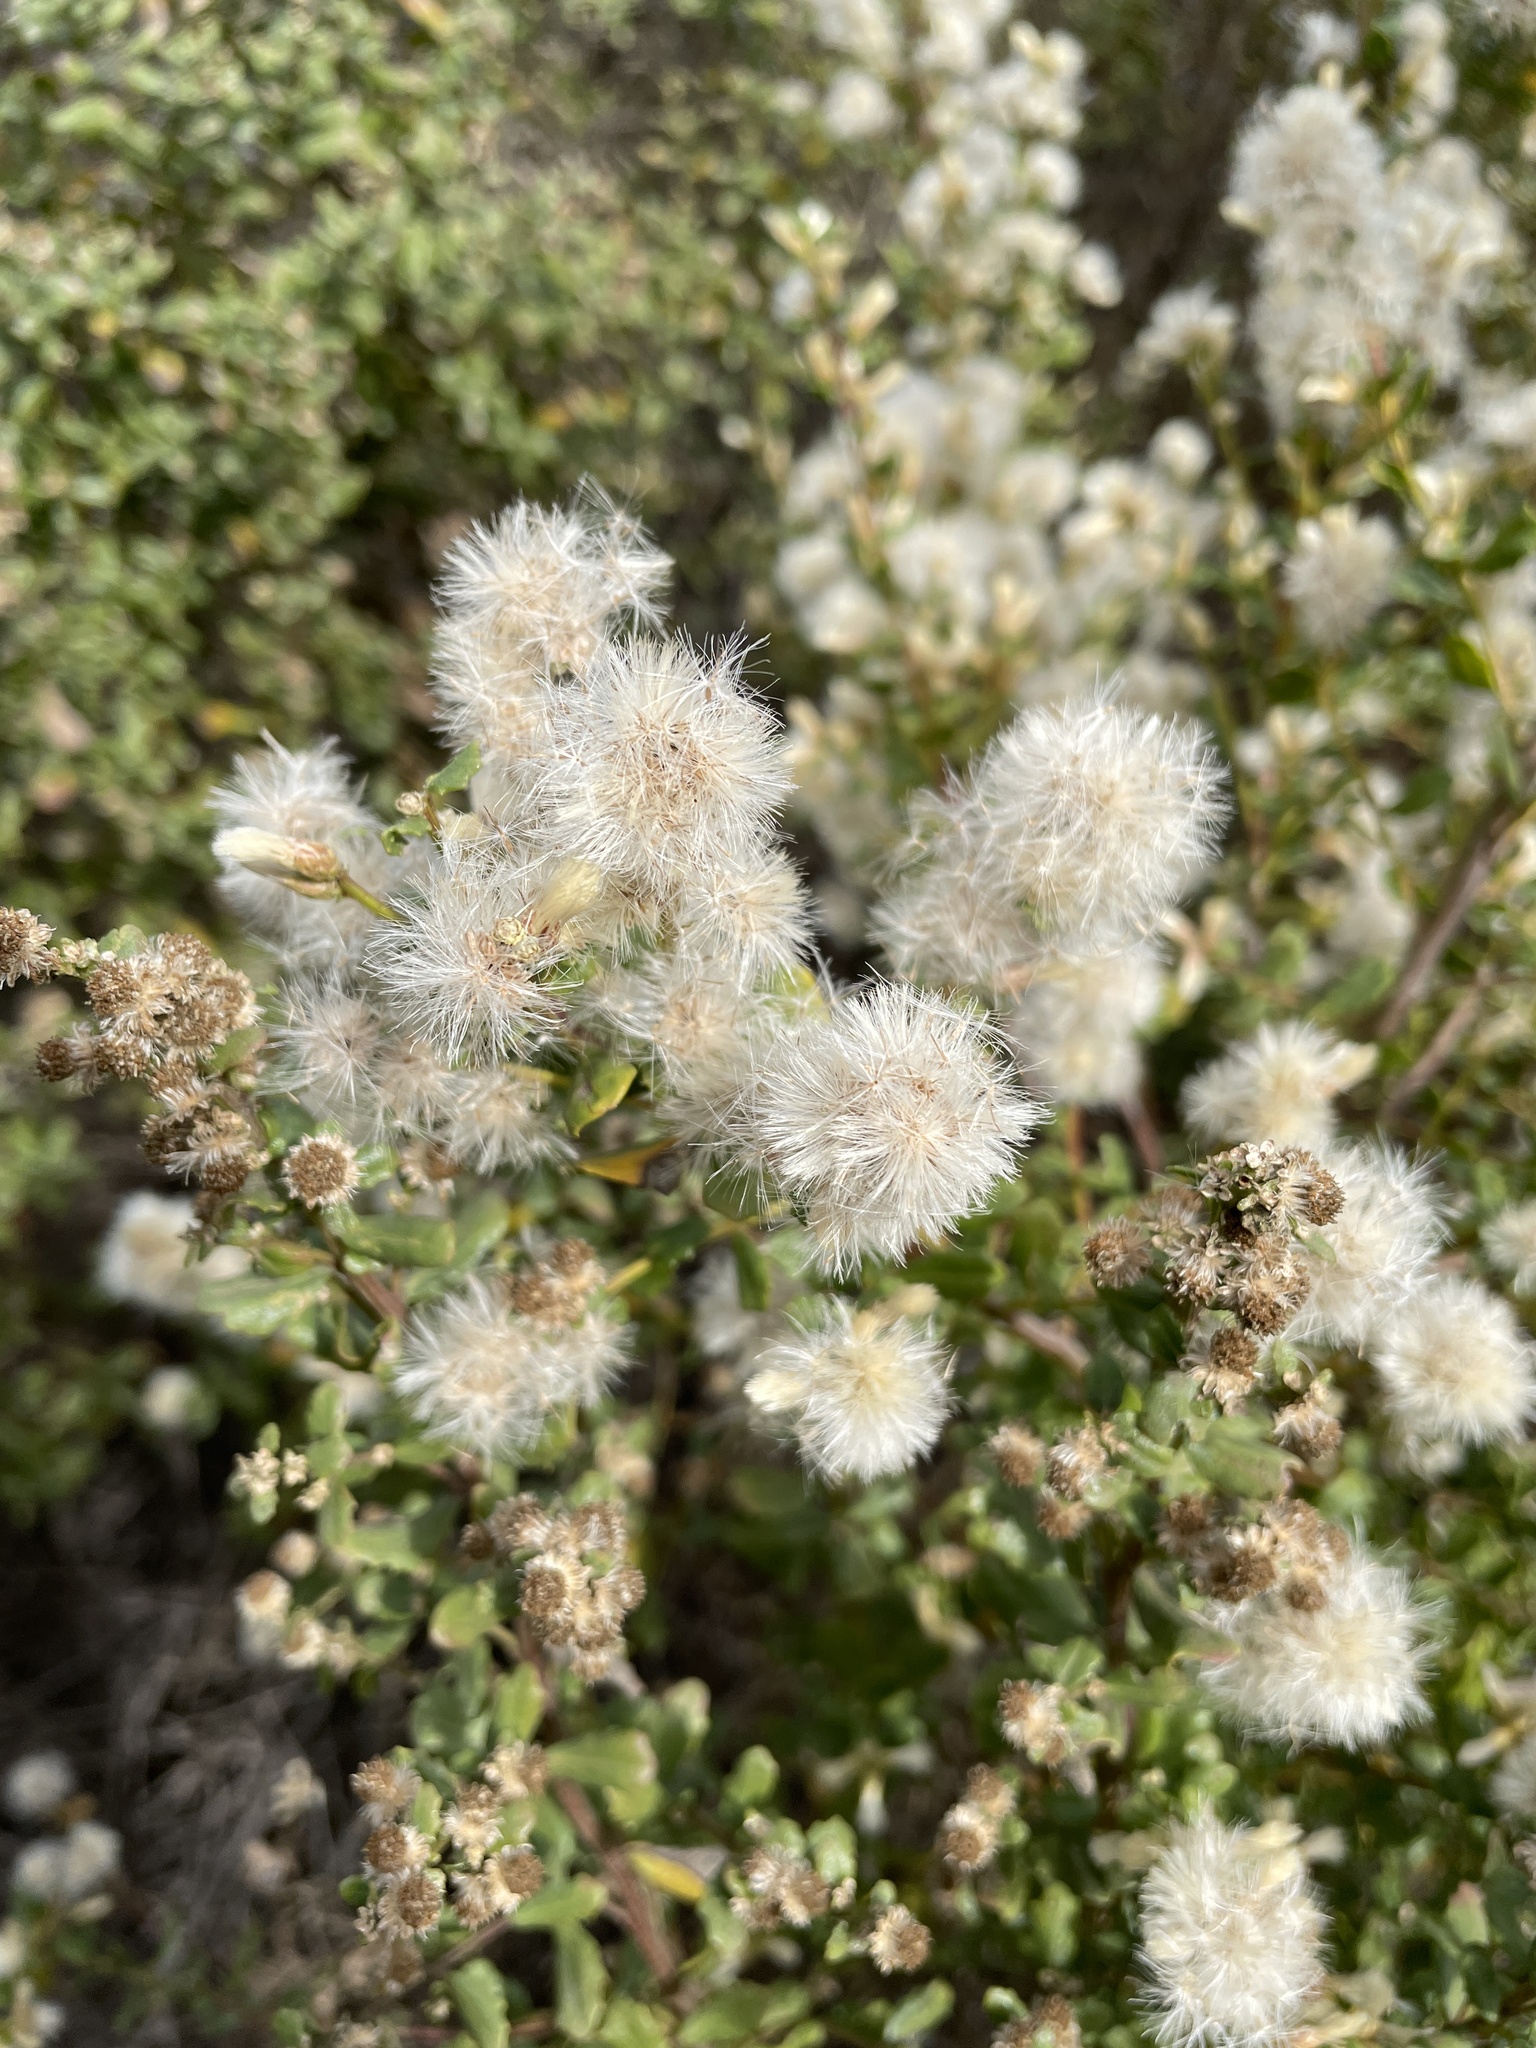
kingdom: Plantae
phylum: Tracheophyta
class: Magnoliopsida
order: Asterales
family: Asteraceae
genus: Baccharis
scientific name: Baccharis pilularis
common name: Coyotebrush
